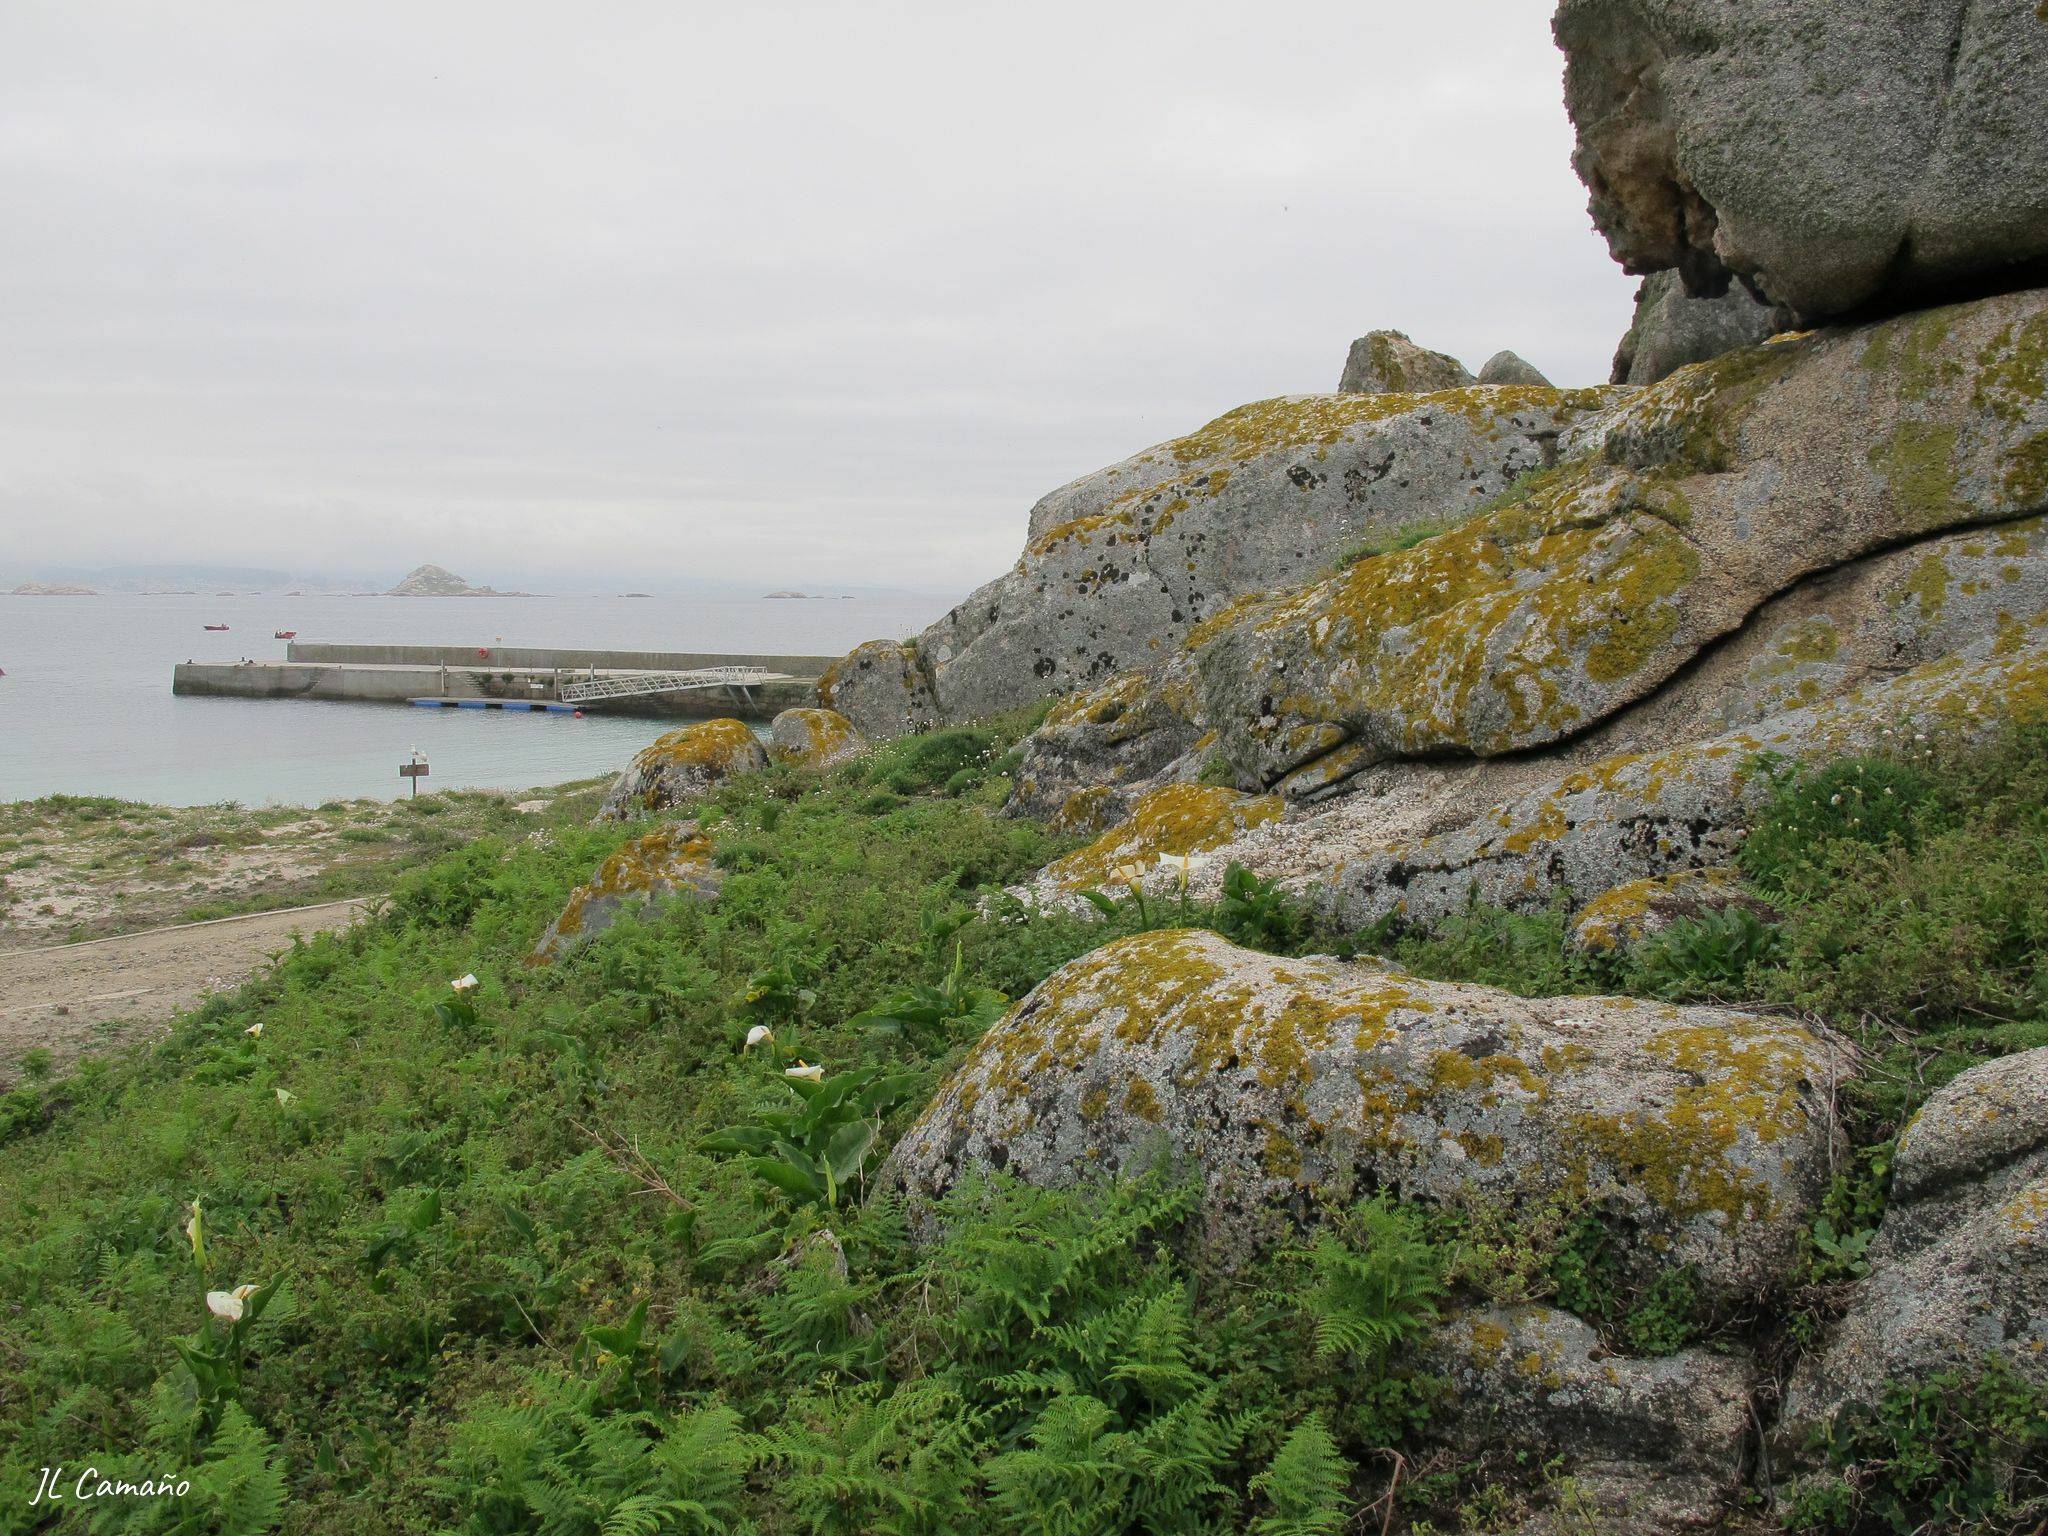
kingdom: Plantae
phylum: Bryophyta
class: Bryopsida
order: Hypnales
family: Hypnaceae
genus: Hypnum
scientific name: Hypnum resupinatum
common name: Supine plait-moss
